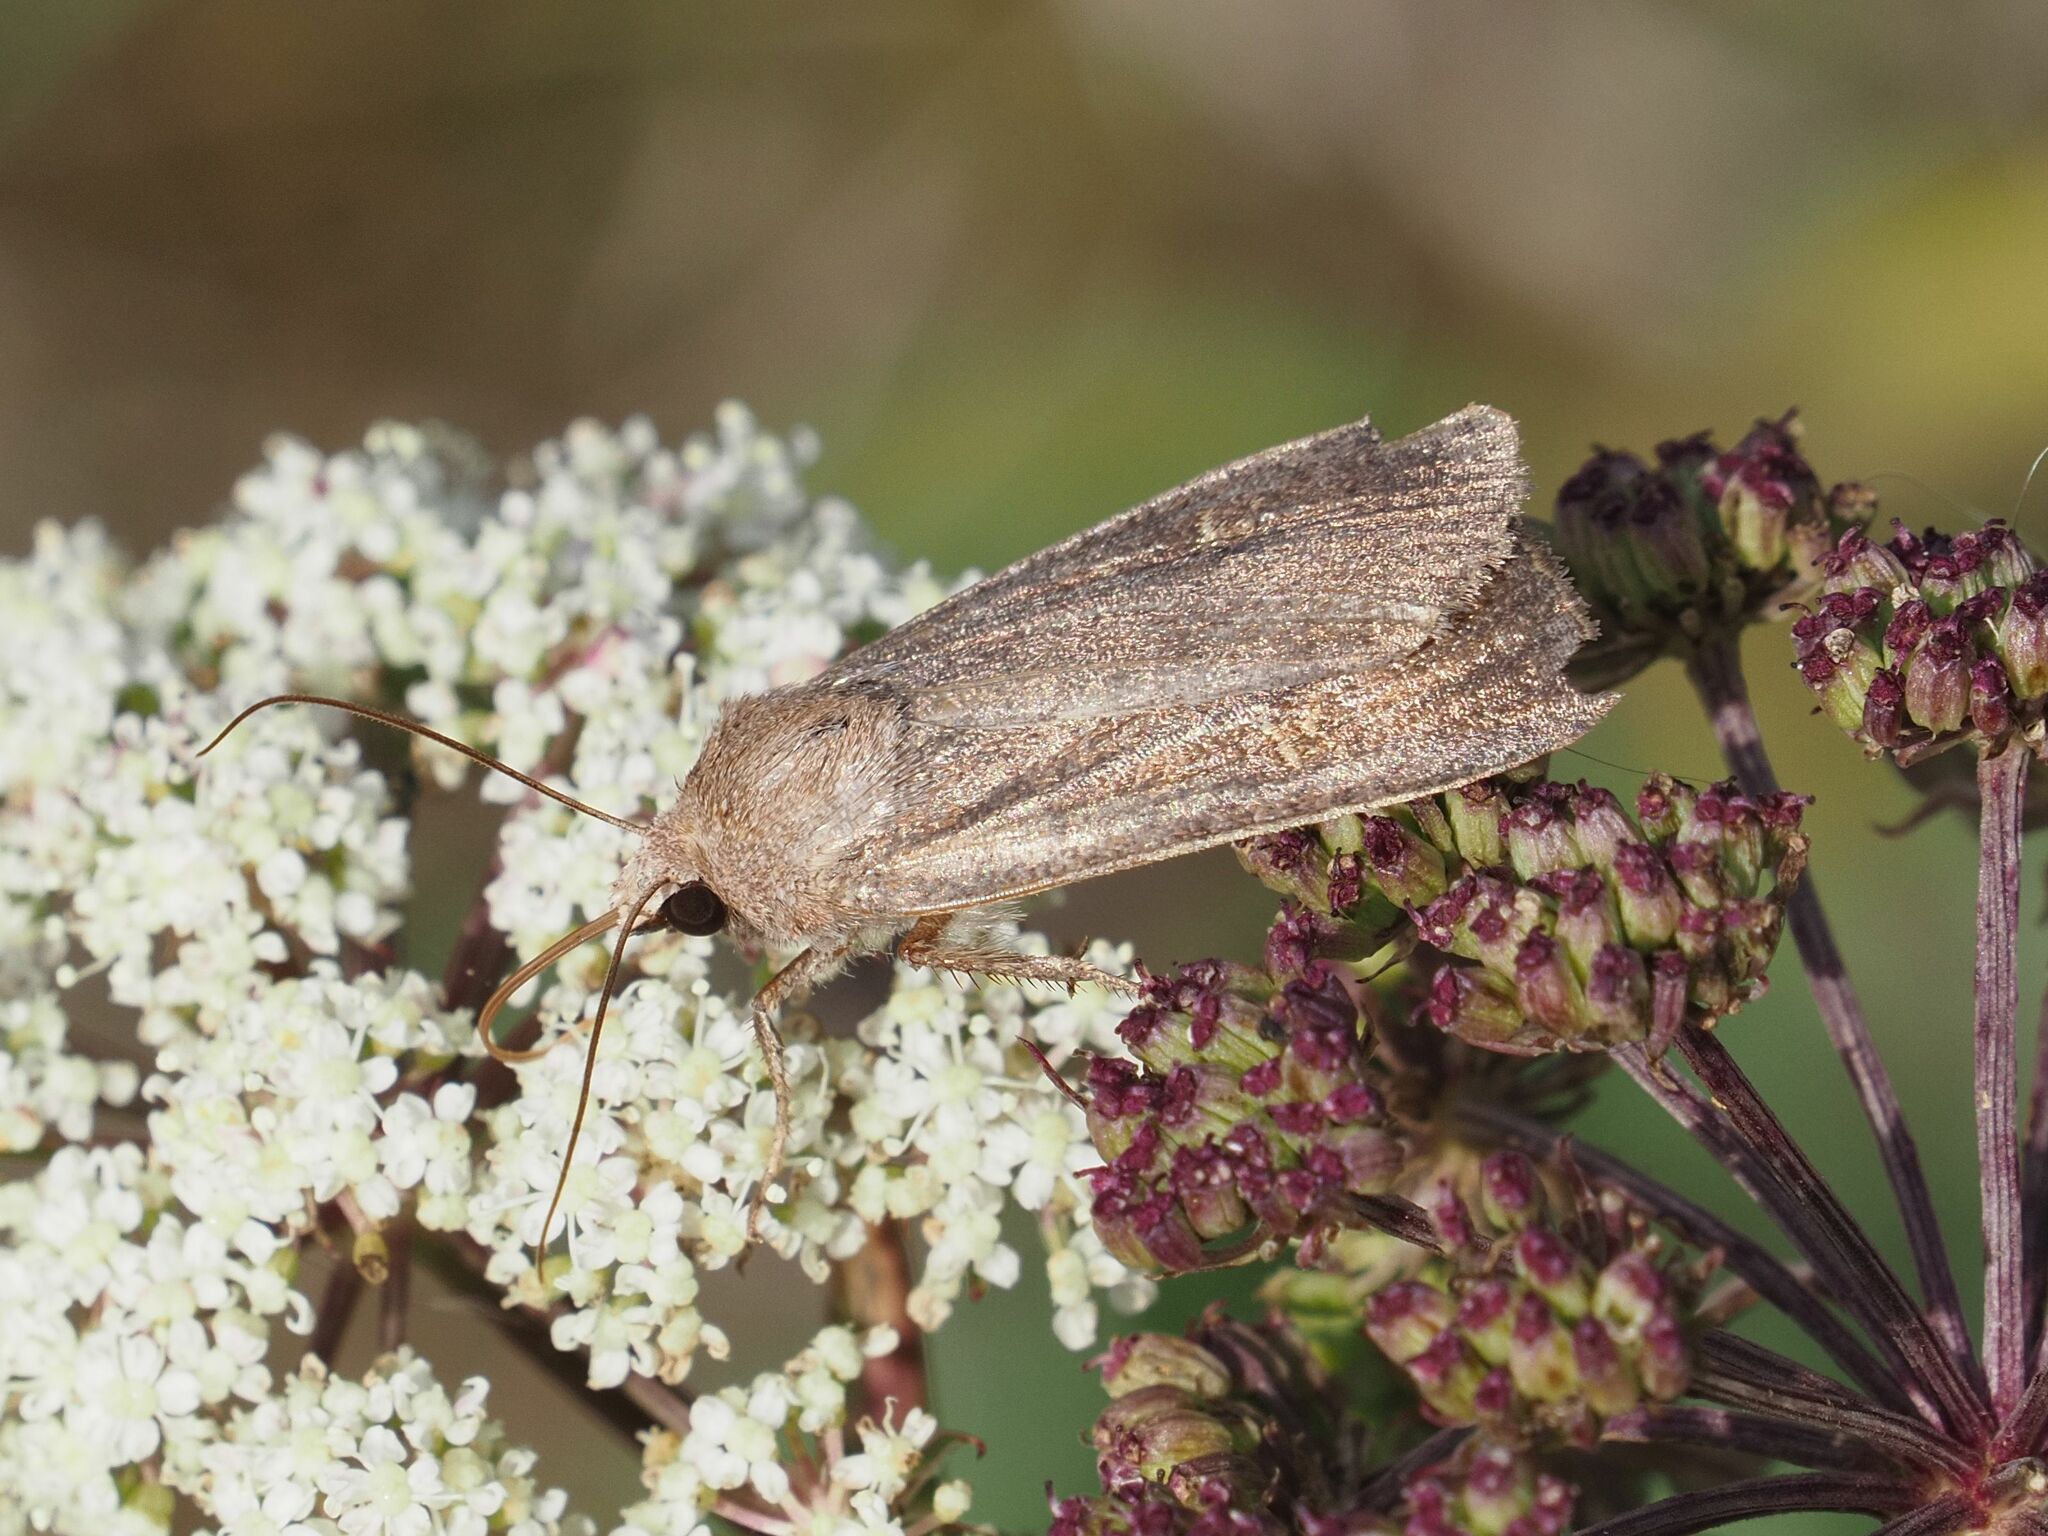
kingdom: Animalia
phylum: Arthropoda
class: Insecta
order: Lepidoptera
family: Noctuidae
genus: Xestia
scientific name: Xestia xanthographa
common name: Square-spot rustic
